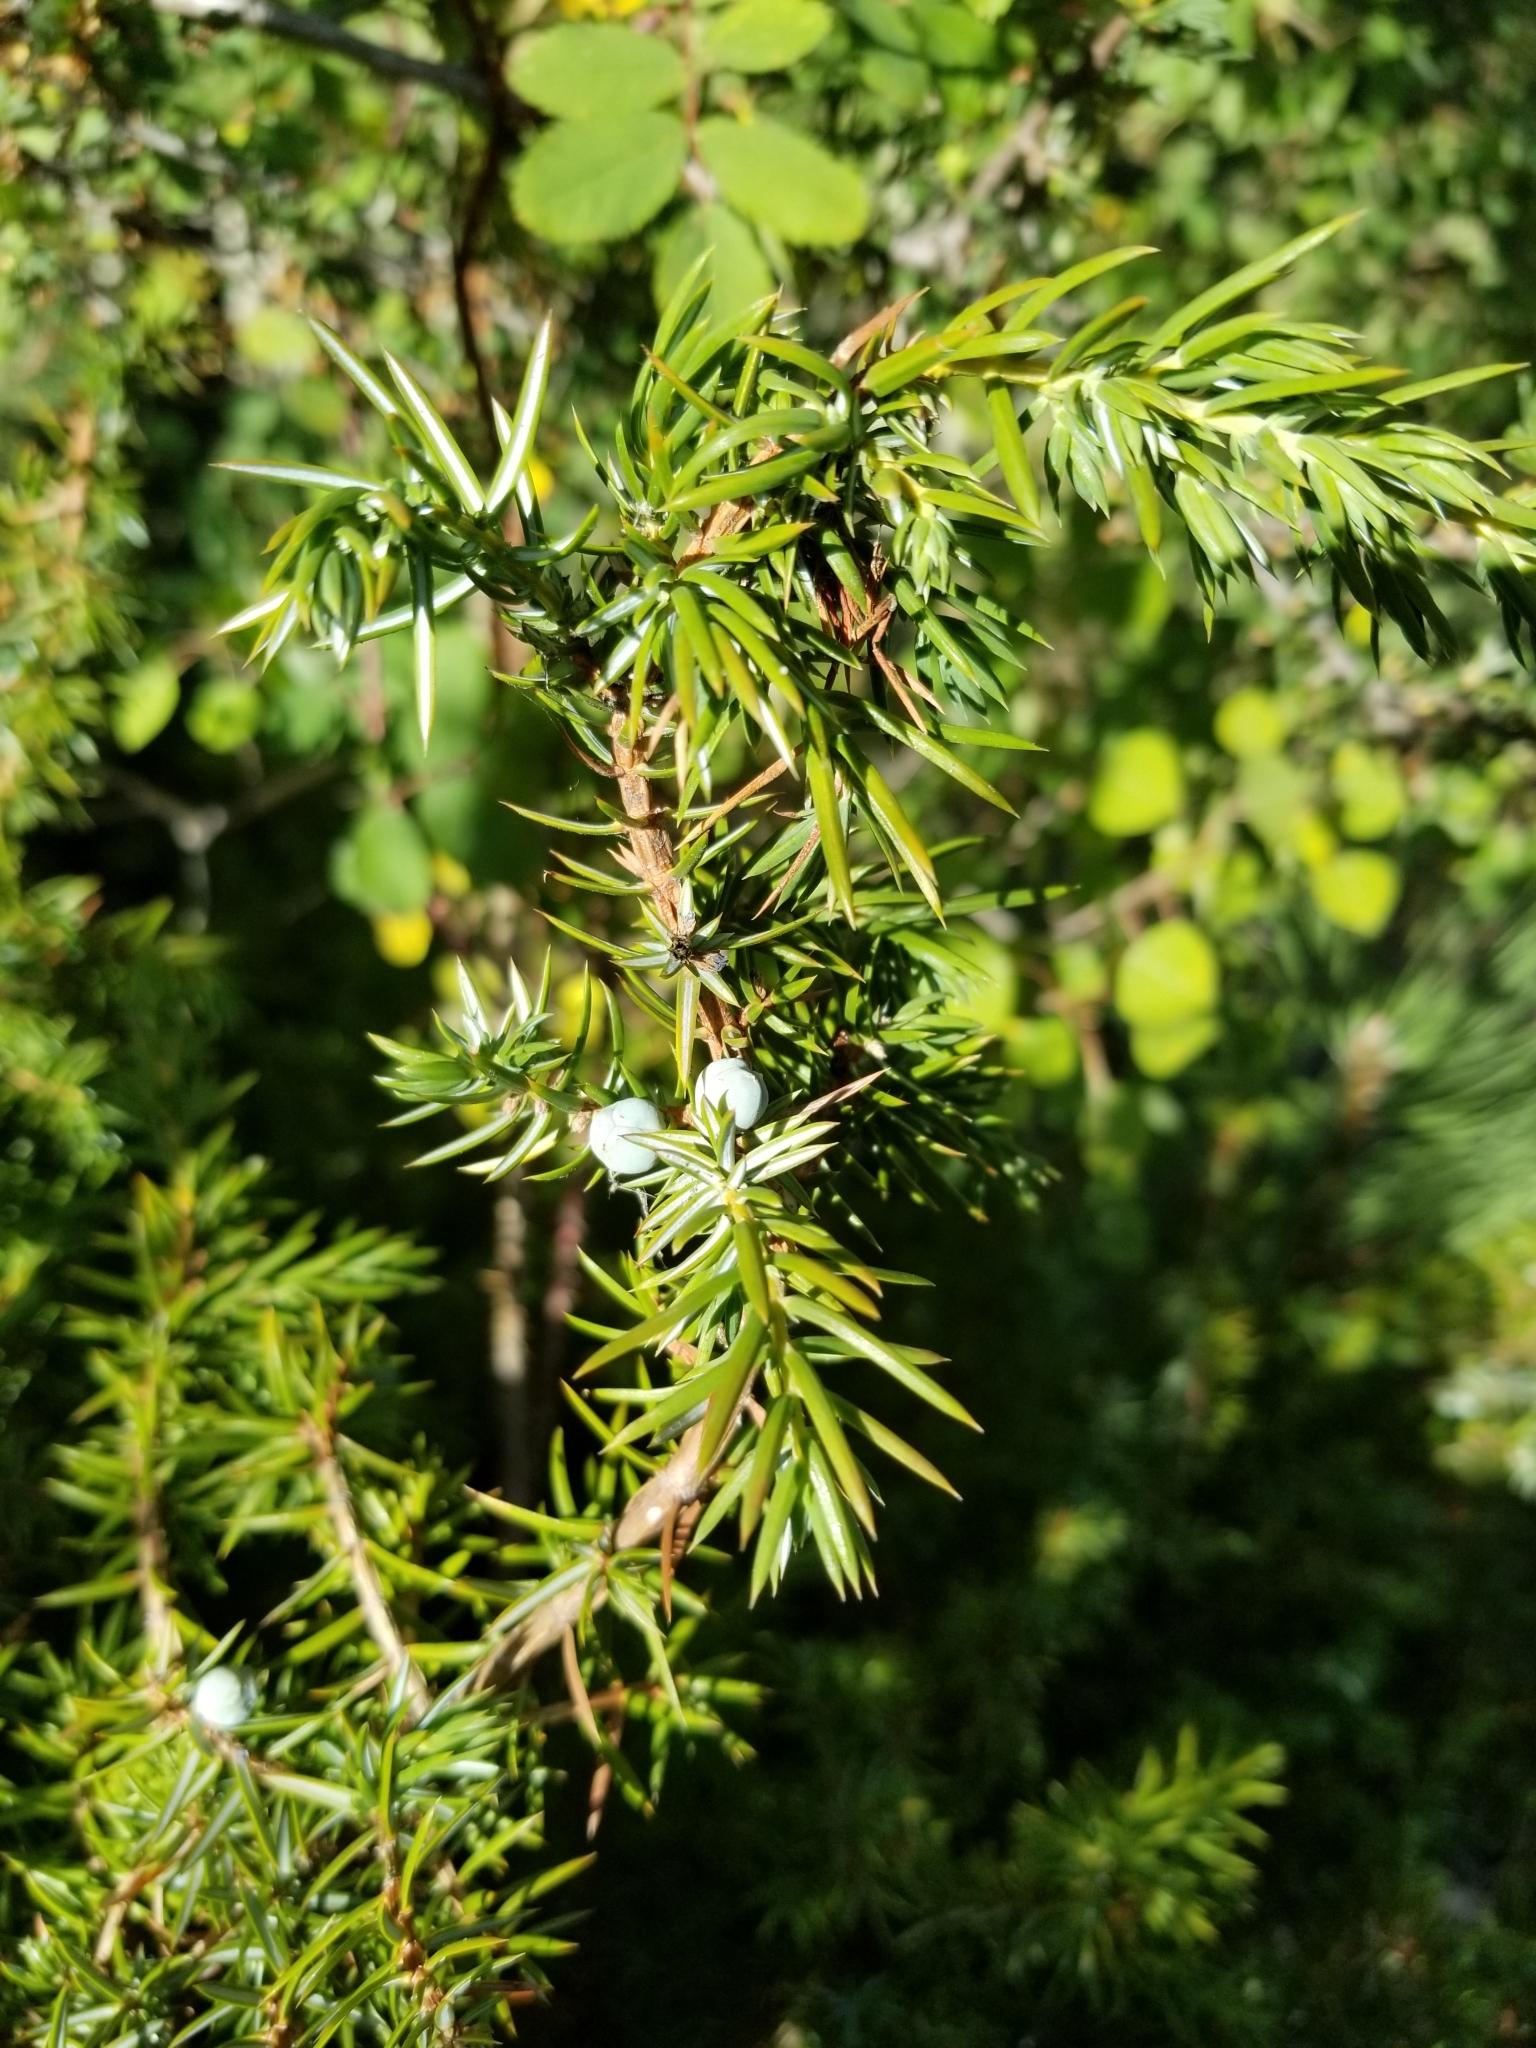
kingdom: Plantae
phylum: Tracheophyta
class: Pinopsida
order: Pinales
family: Cupressaceae
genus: Juniperus
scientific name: Juniperus communis
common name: Common juniper
